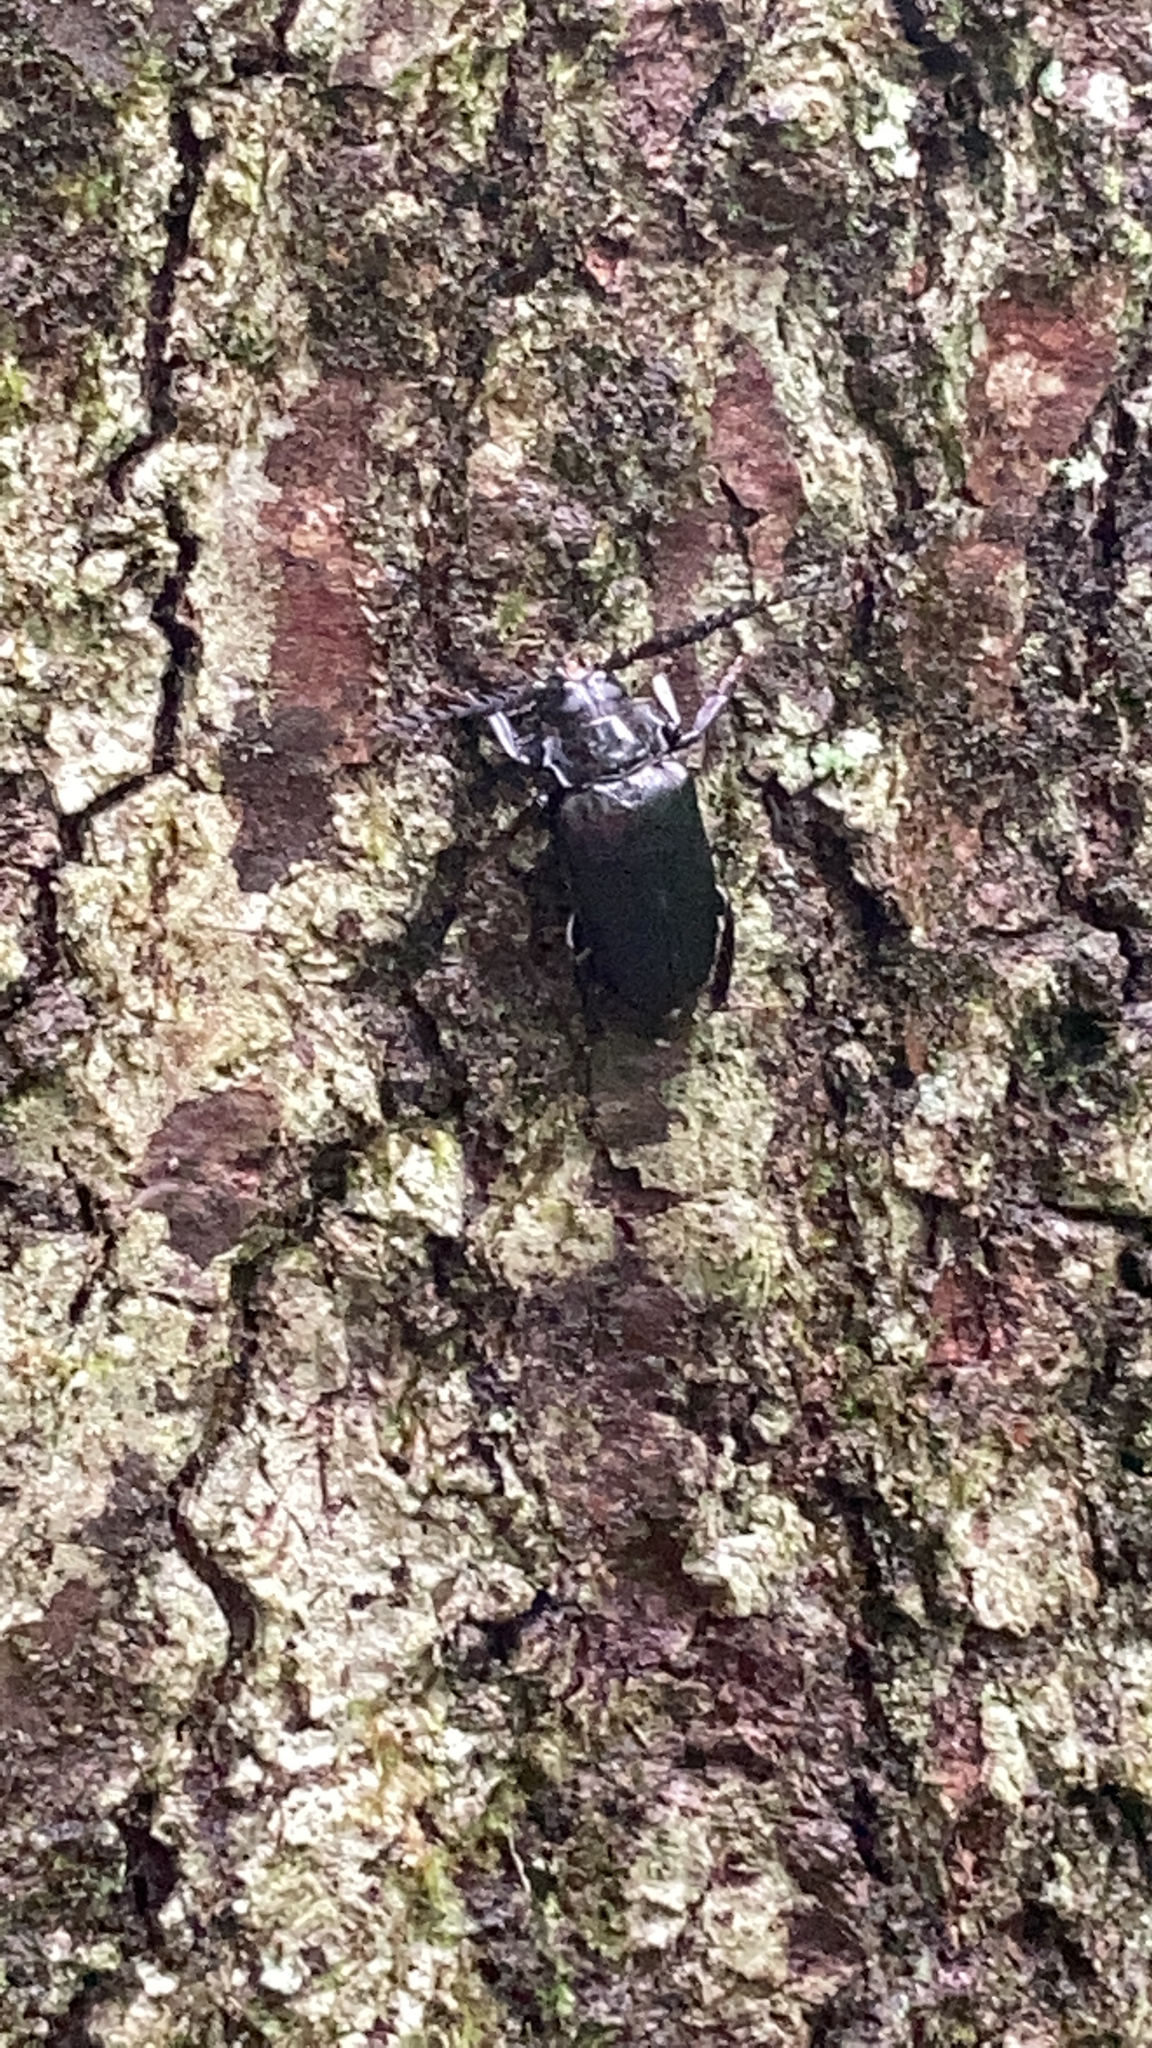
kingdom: Animalia
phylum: Arthropoda
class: Insecta
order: Coleoptera
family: Cerambycidae
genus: Prionus
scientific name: Prionus laticollis
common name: Broad necked prionus
